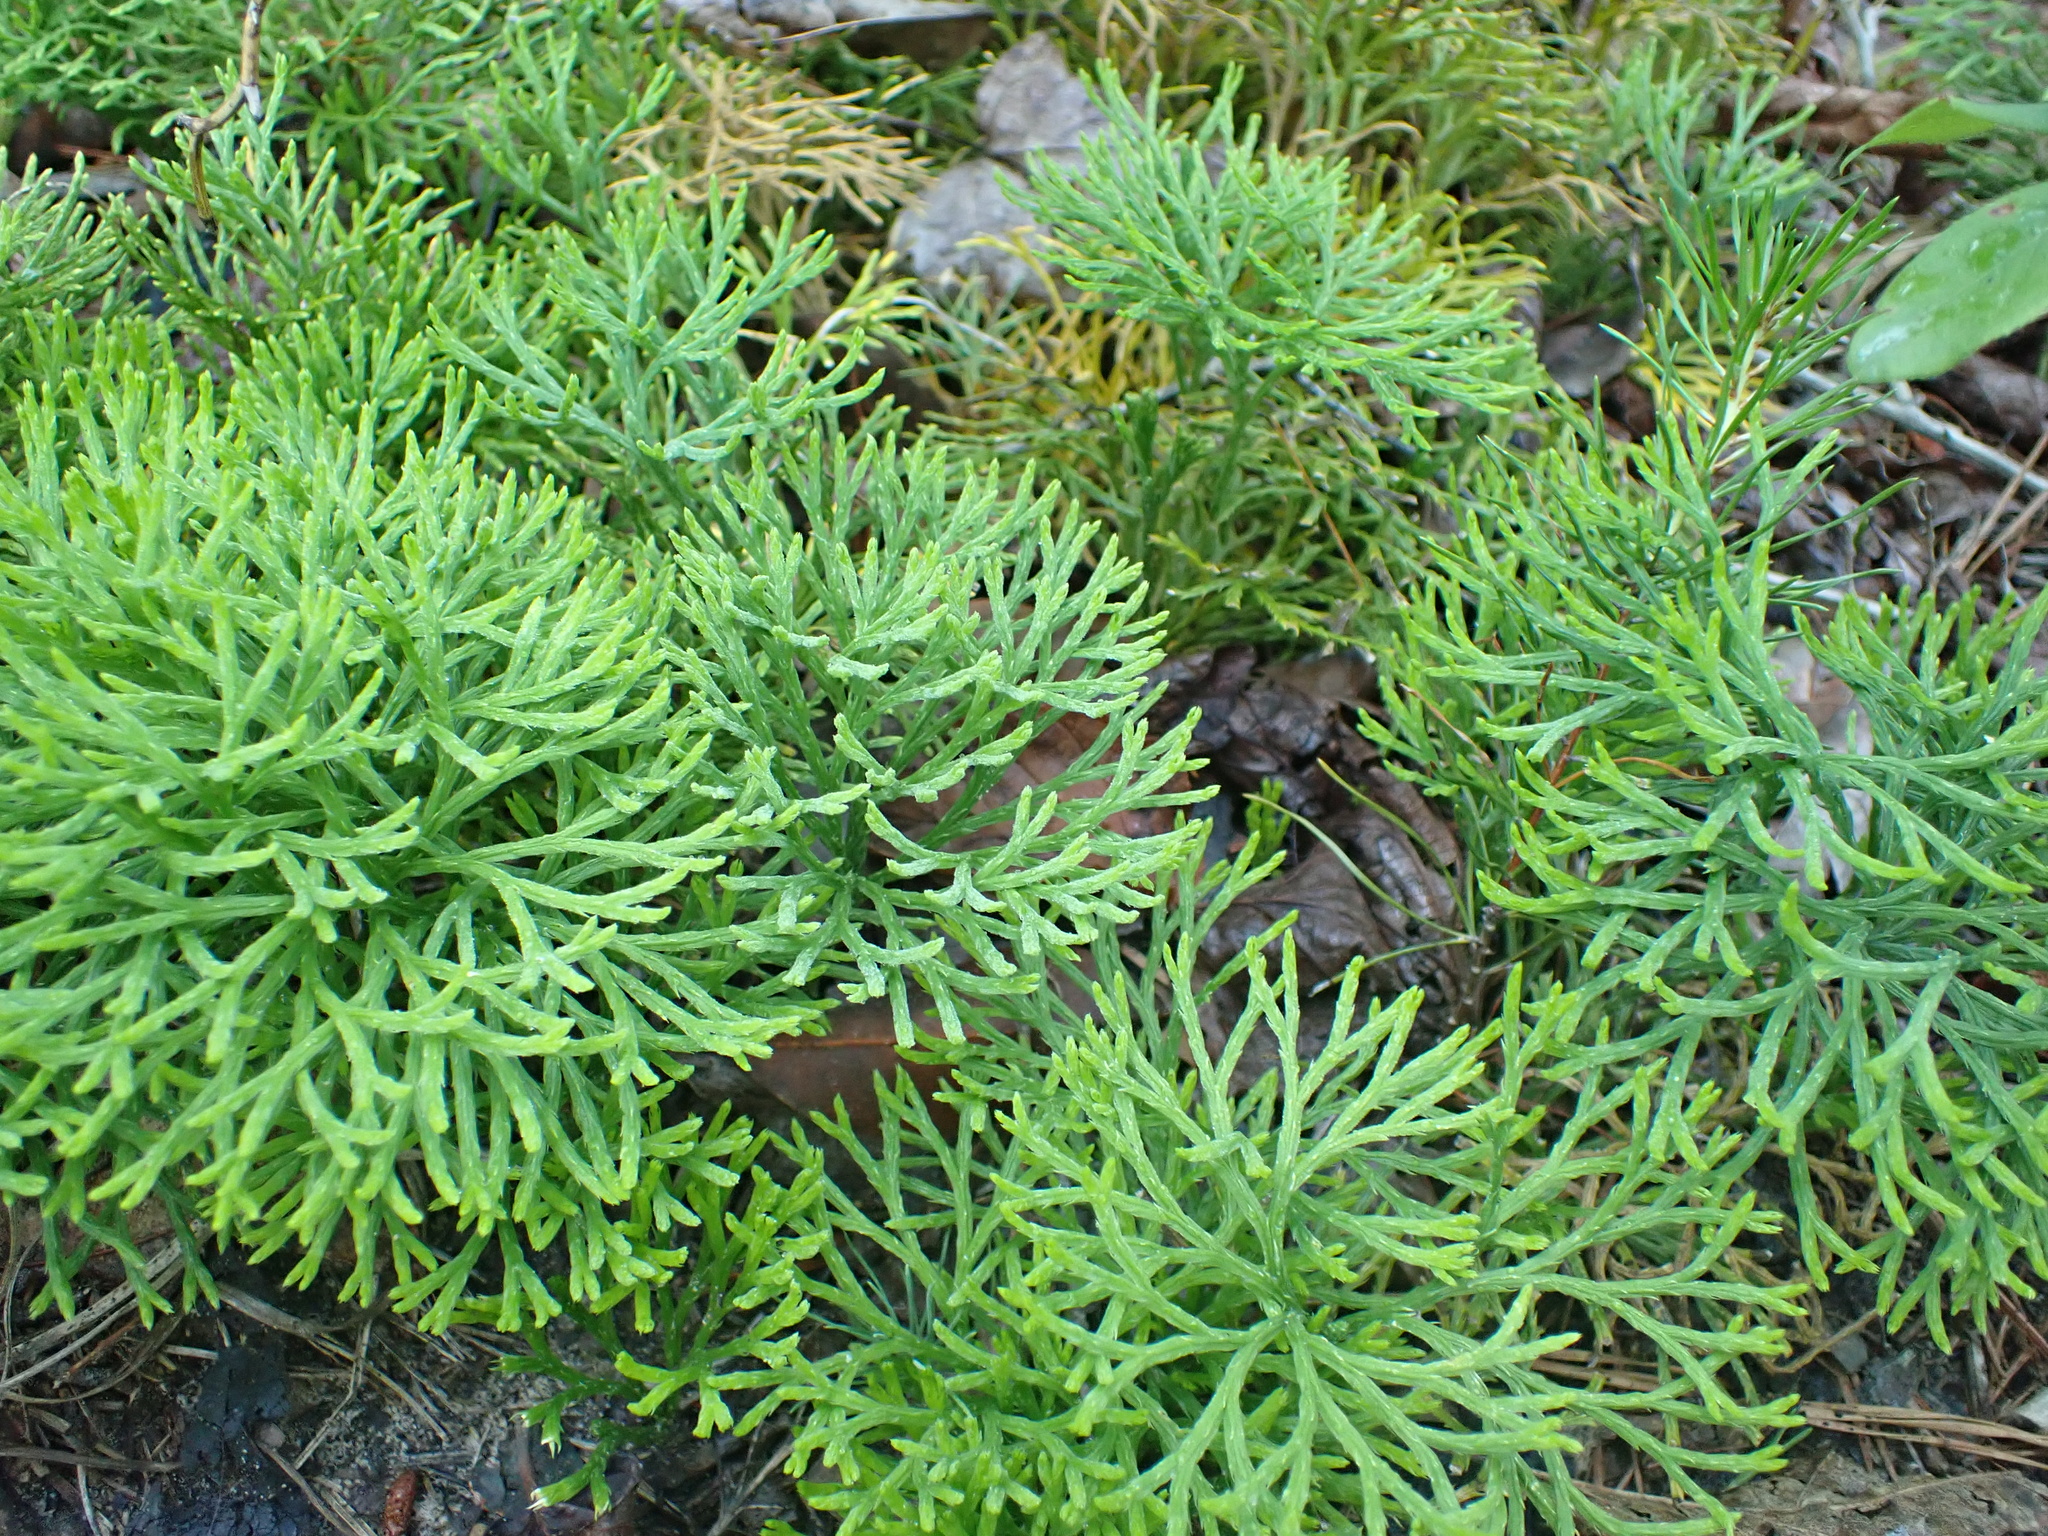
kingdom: Plantae
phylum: Tracheophyta
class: Lycopodiopsida
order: Lycopodiales
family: Lycopodiaceae
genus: Diphasiastrum
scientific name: Diphasiastrum digitatum
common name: Southern running-pine
